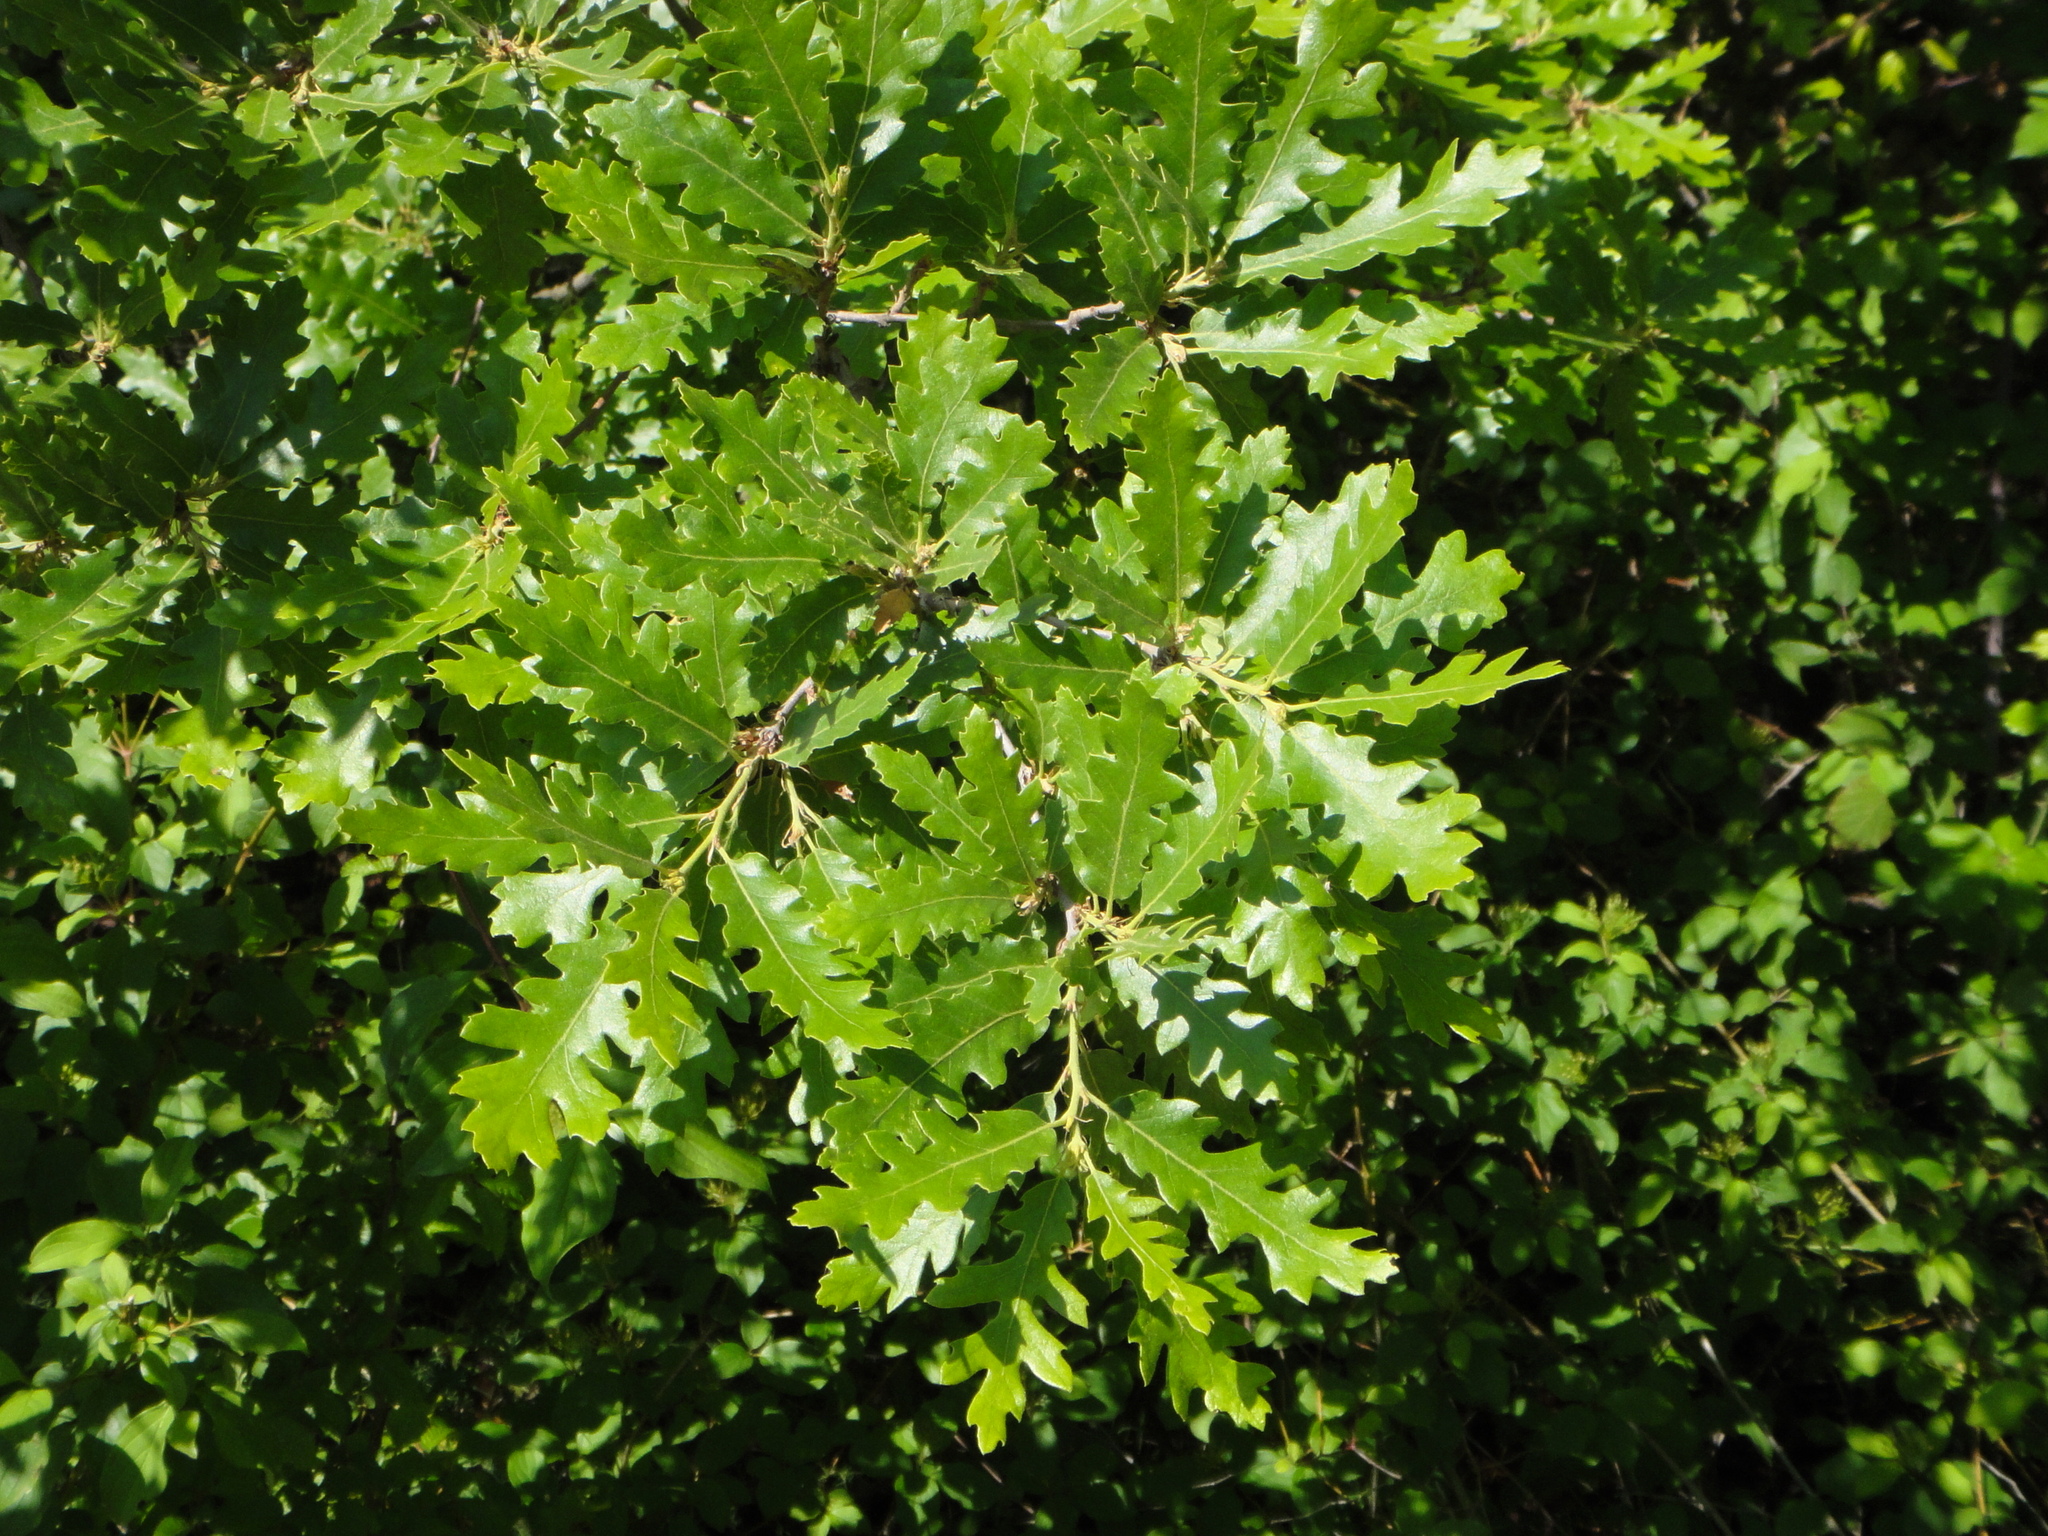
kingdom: Plantae
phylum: Tracheophyta
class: Magnoliopsida
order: Fagales
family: Fagaceae
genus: Quercus
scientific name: Quercus pubescens
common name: Downy oak
